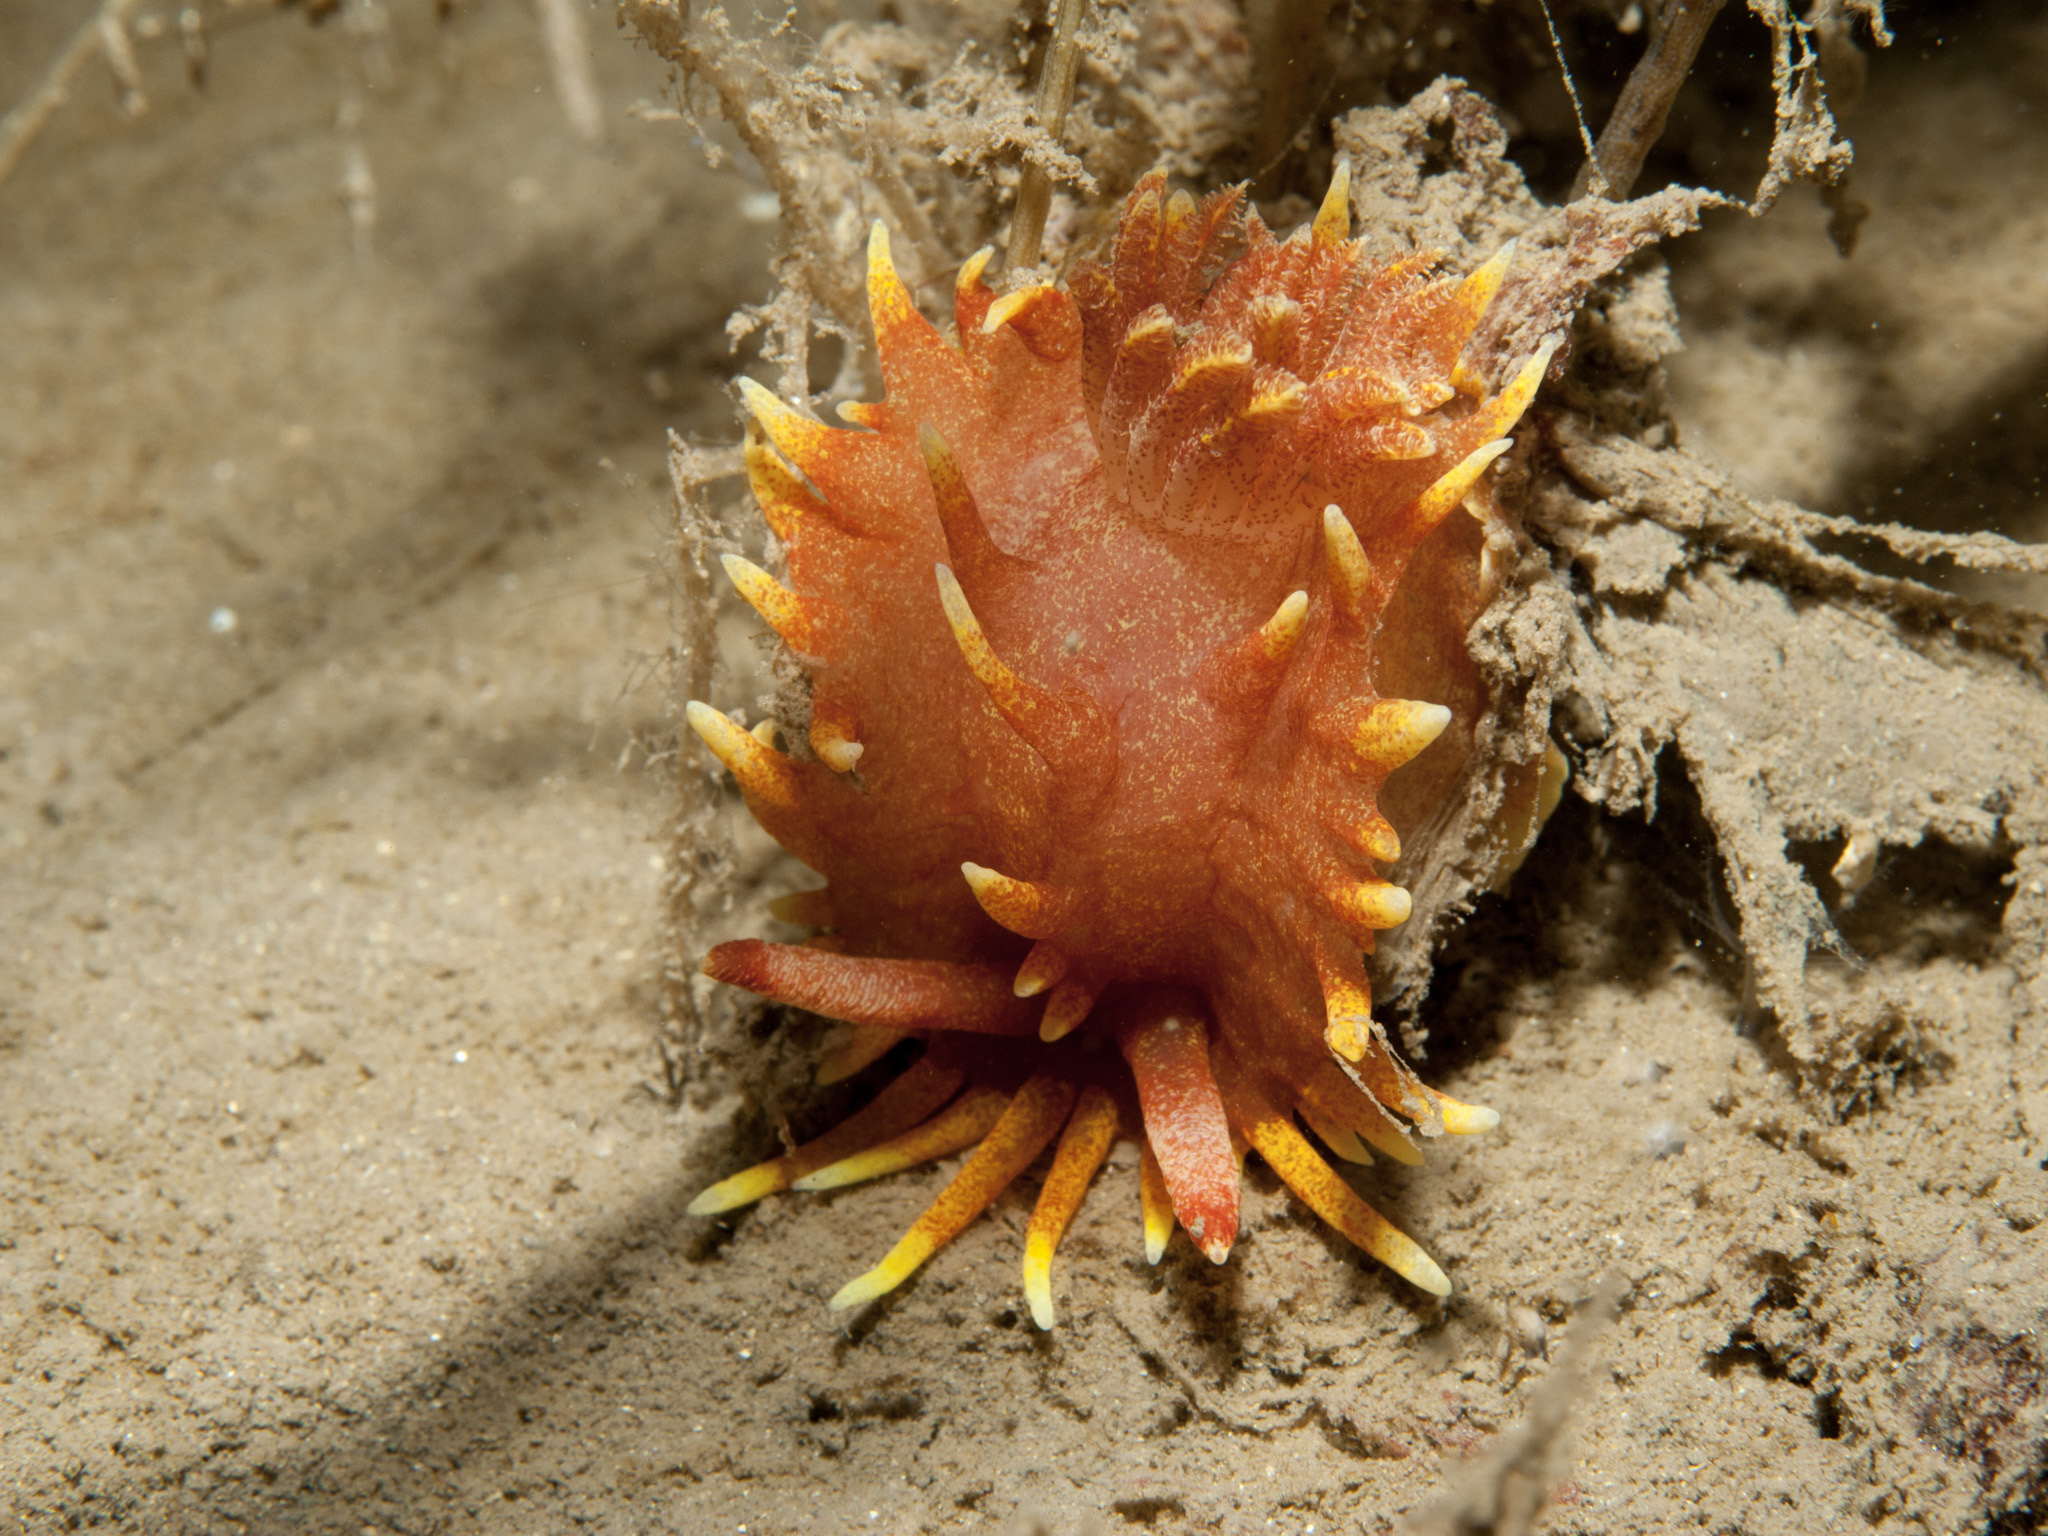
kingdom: Animalia
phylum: Mollusca
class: Gastropoda
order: Nudibranchia
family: Goniodorididae
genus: Okenia
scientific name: Okenia elegans
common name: Yellow skirt slug
